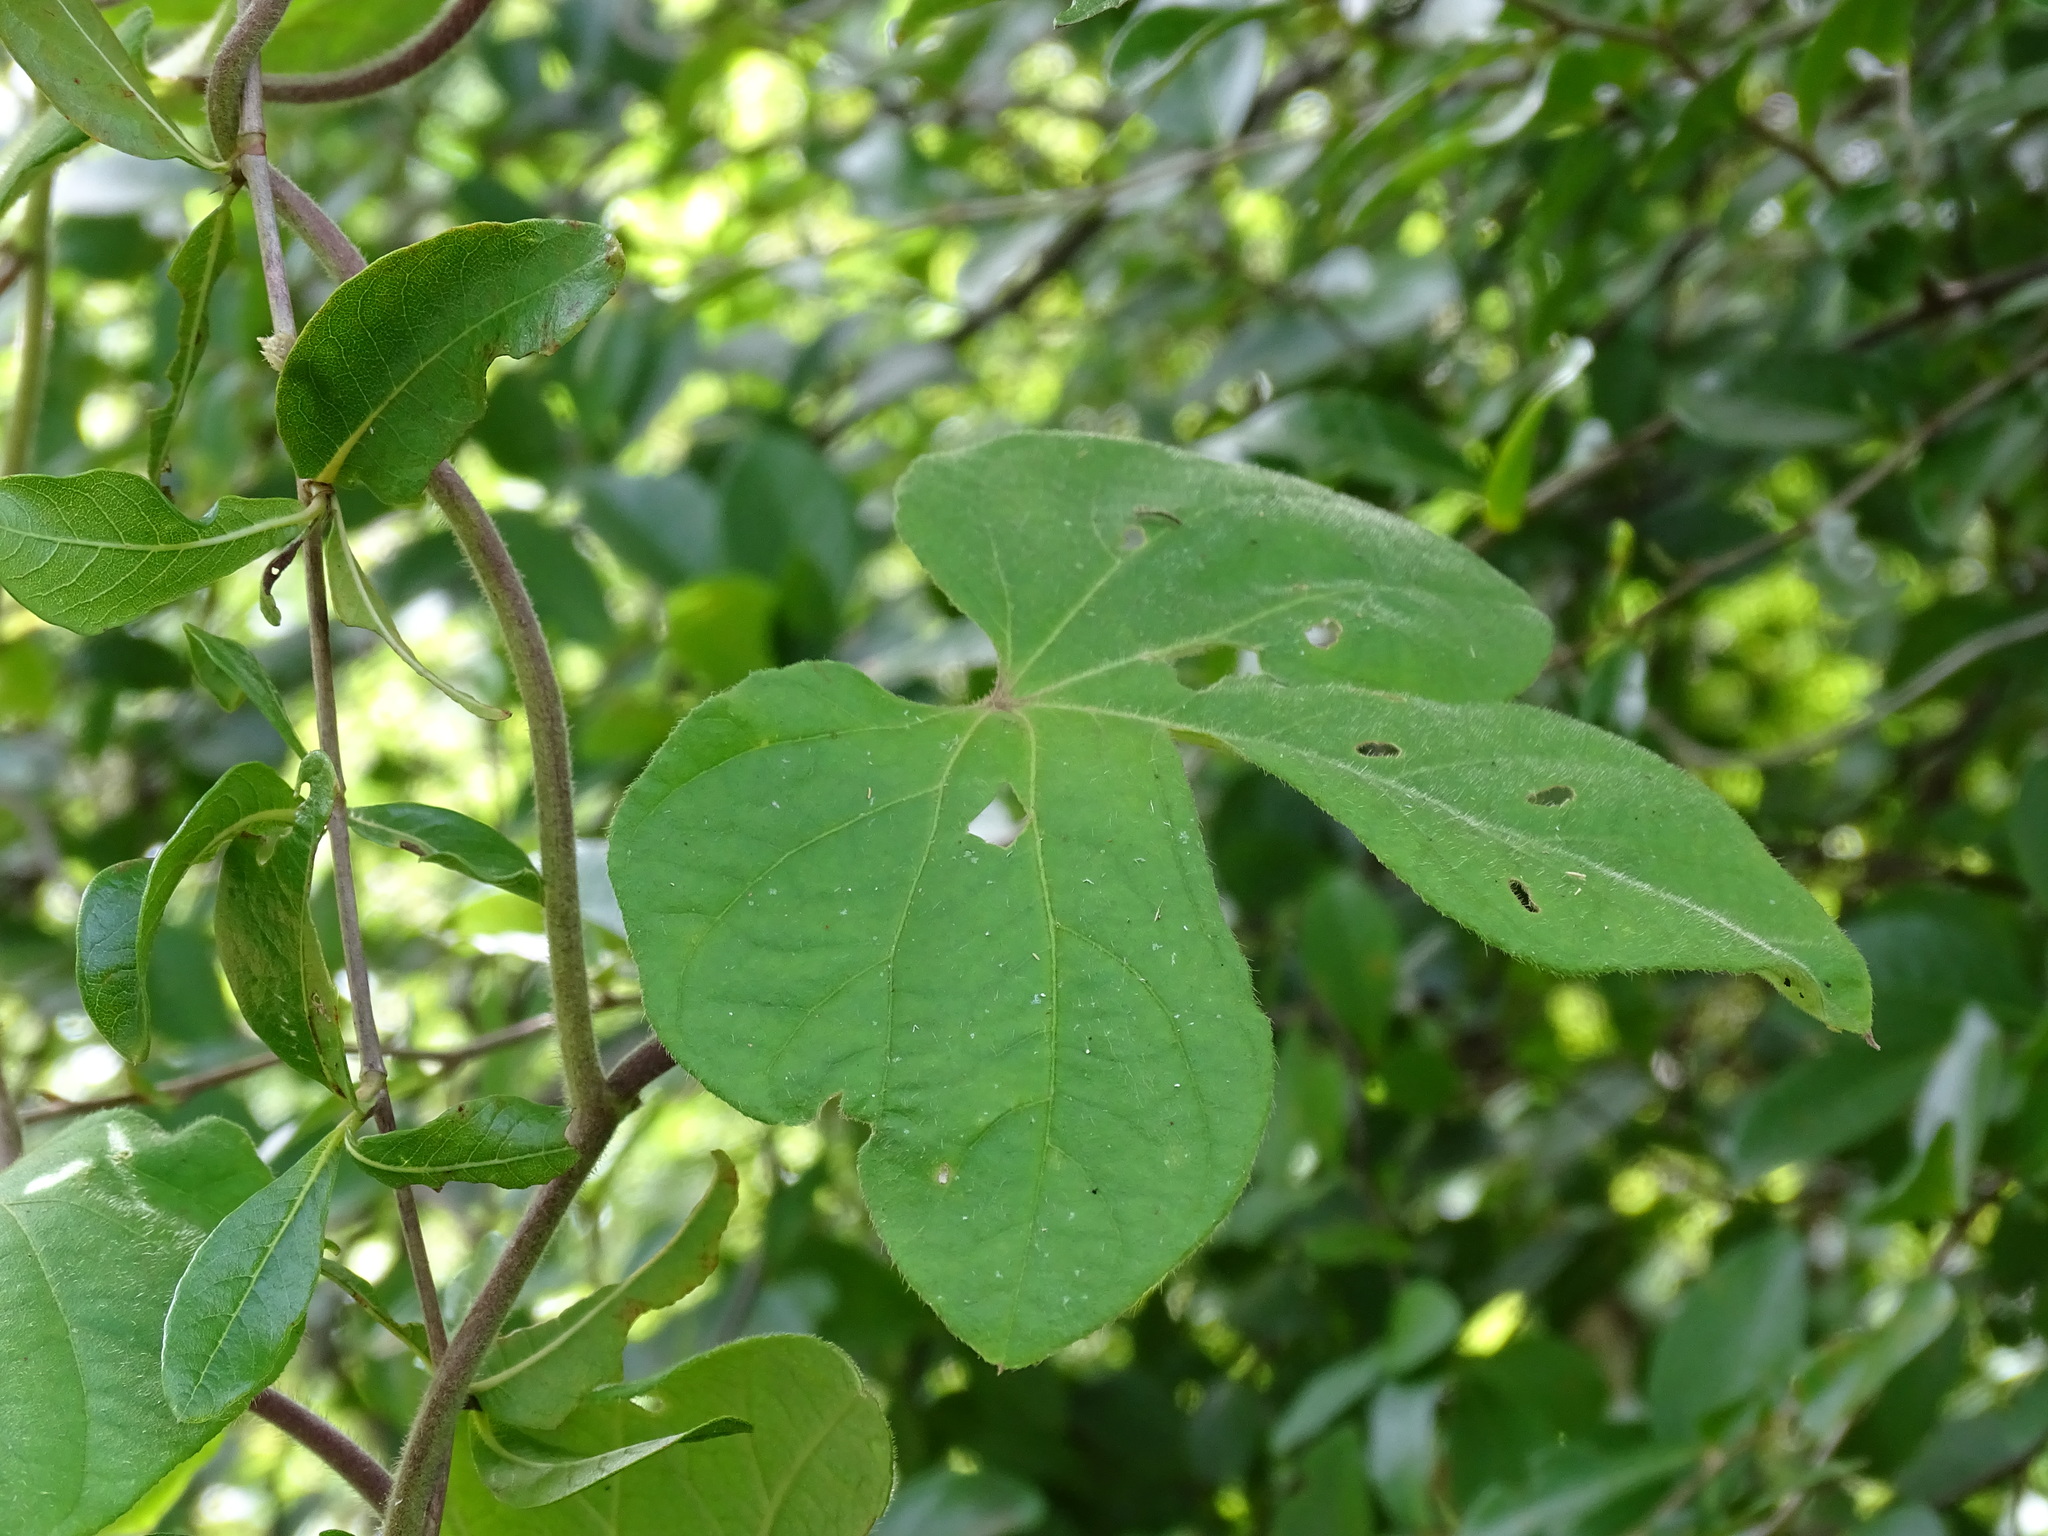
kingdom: Plantae
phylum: Tracheophyta
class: Magnoliopsida
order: Solanales
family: Convolvulaceae
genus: Ipomoea
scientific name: Ipomoea peteri
